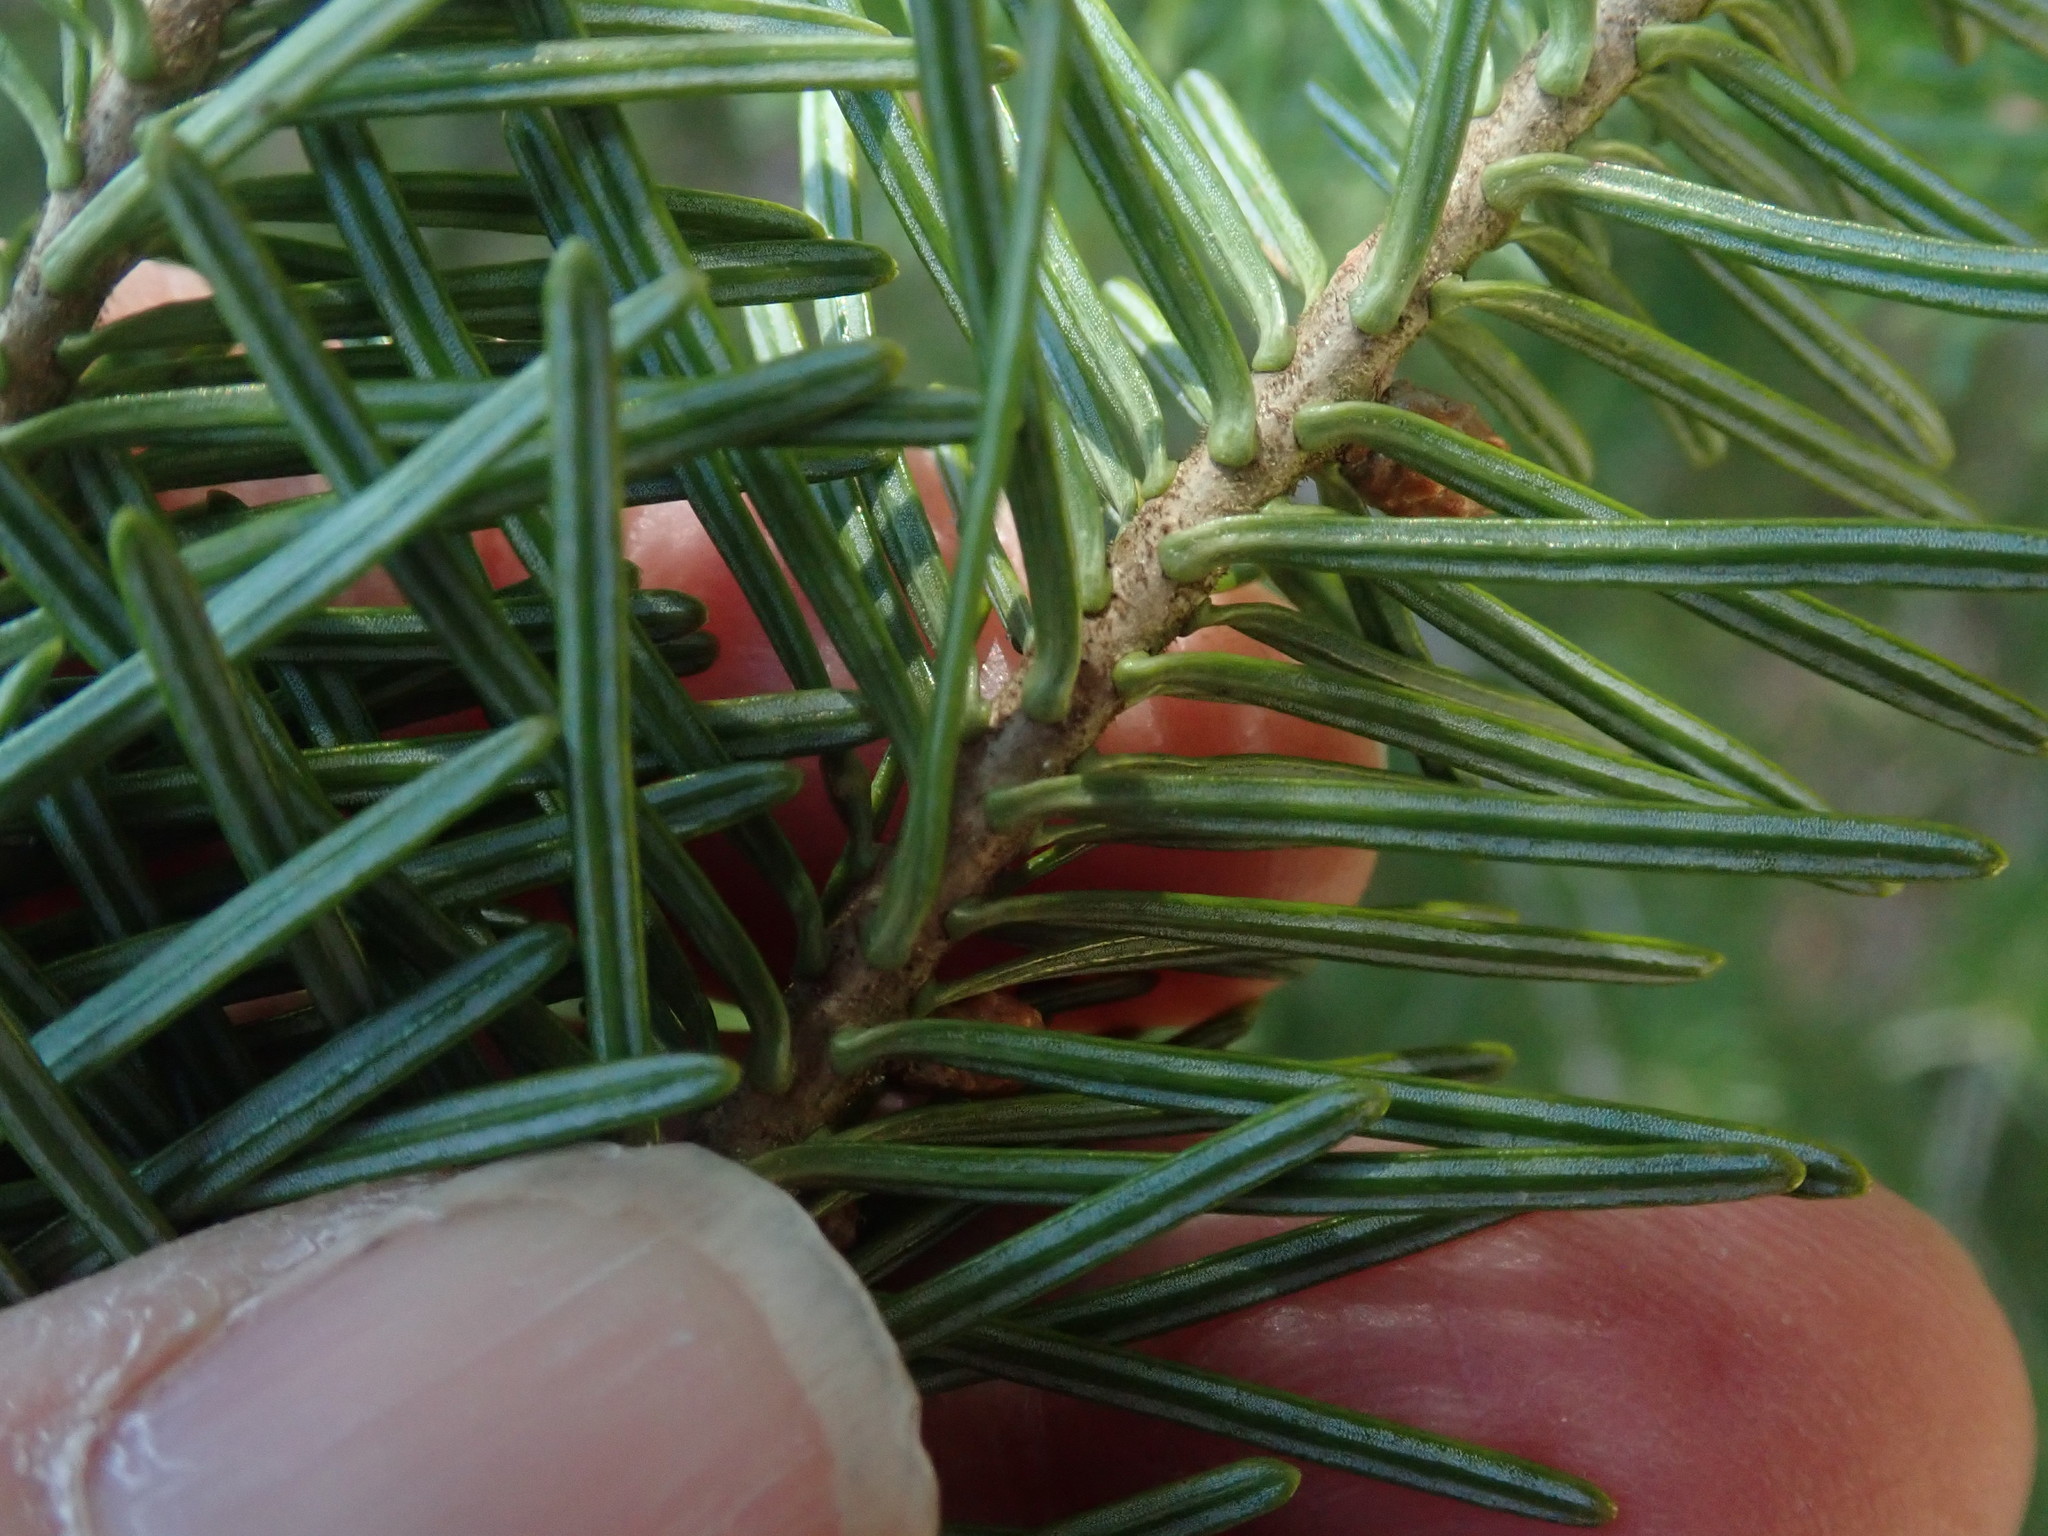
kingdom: Plantae
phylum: Tracheophyta
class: Pinopsida
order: Pinales
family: Pinaceae
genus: Abies
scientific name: Abies balsamea
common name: Balsam fir
